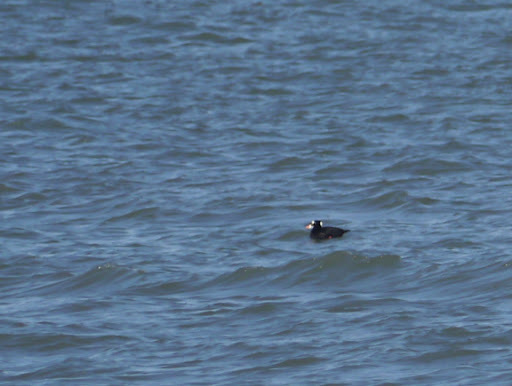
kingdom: Animalia
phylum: Chordata
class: Aves
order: Anseriformes
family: Anatidae
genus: Melanitta
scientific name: Melanitta perspicillata
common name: Surf scoter
